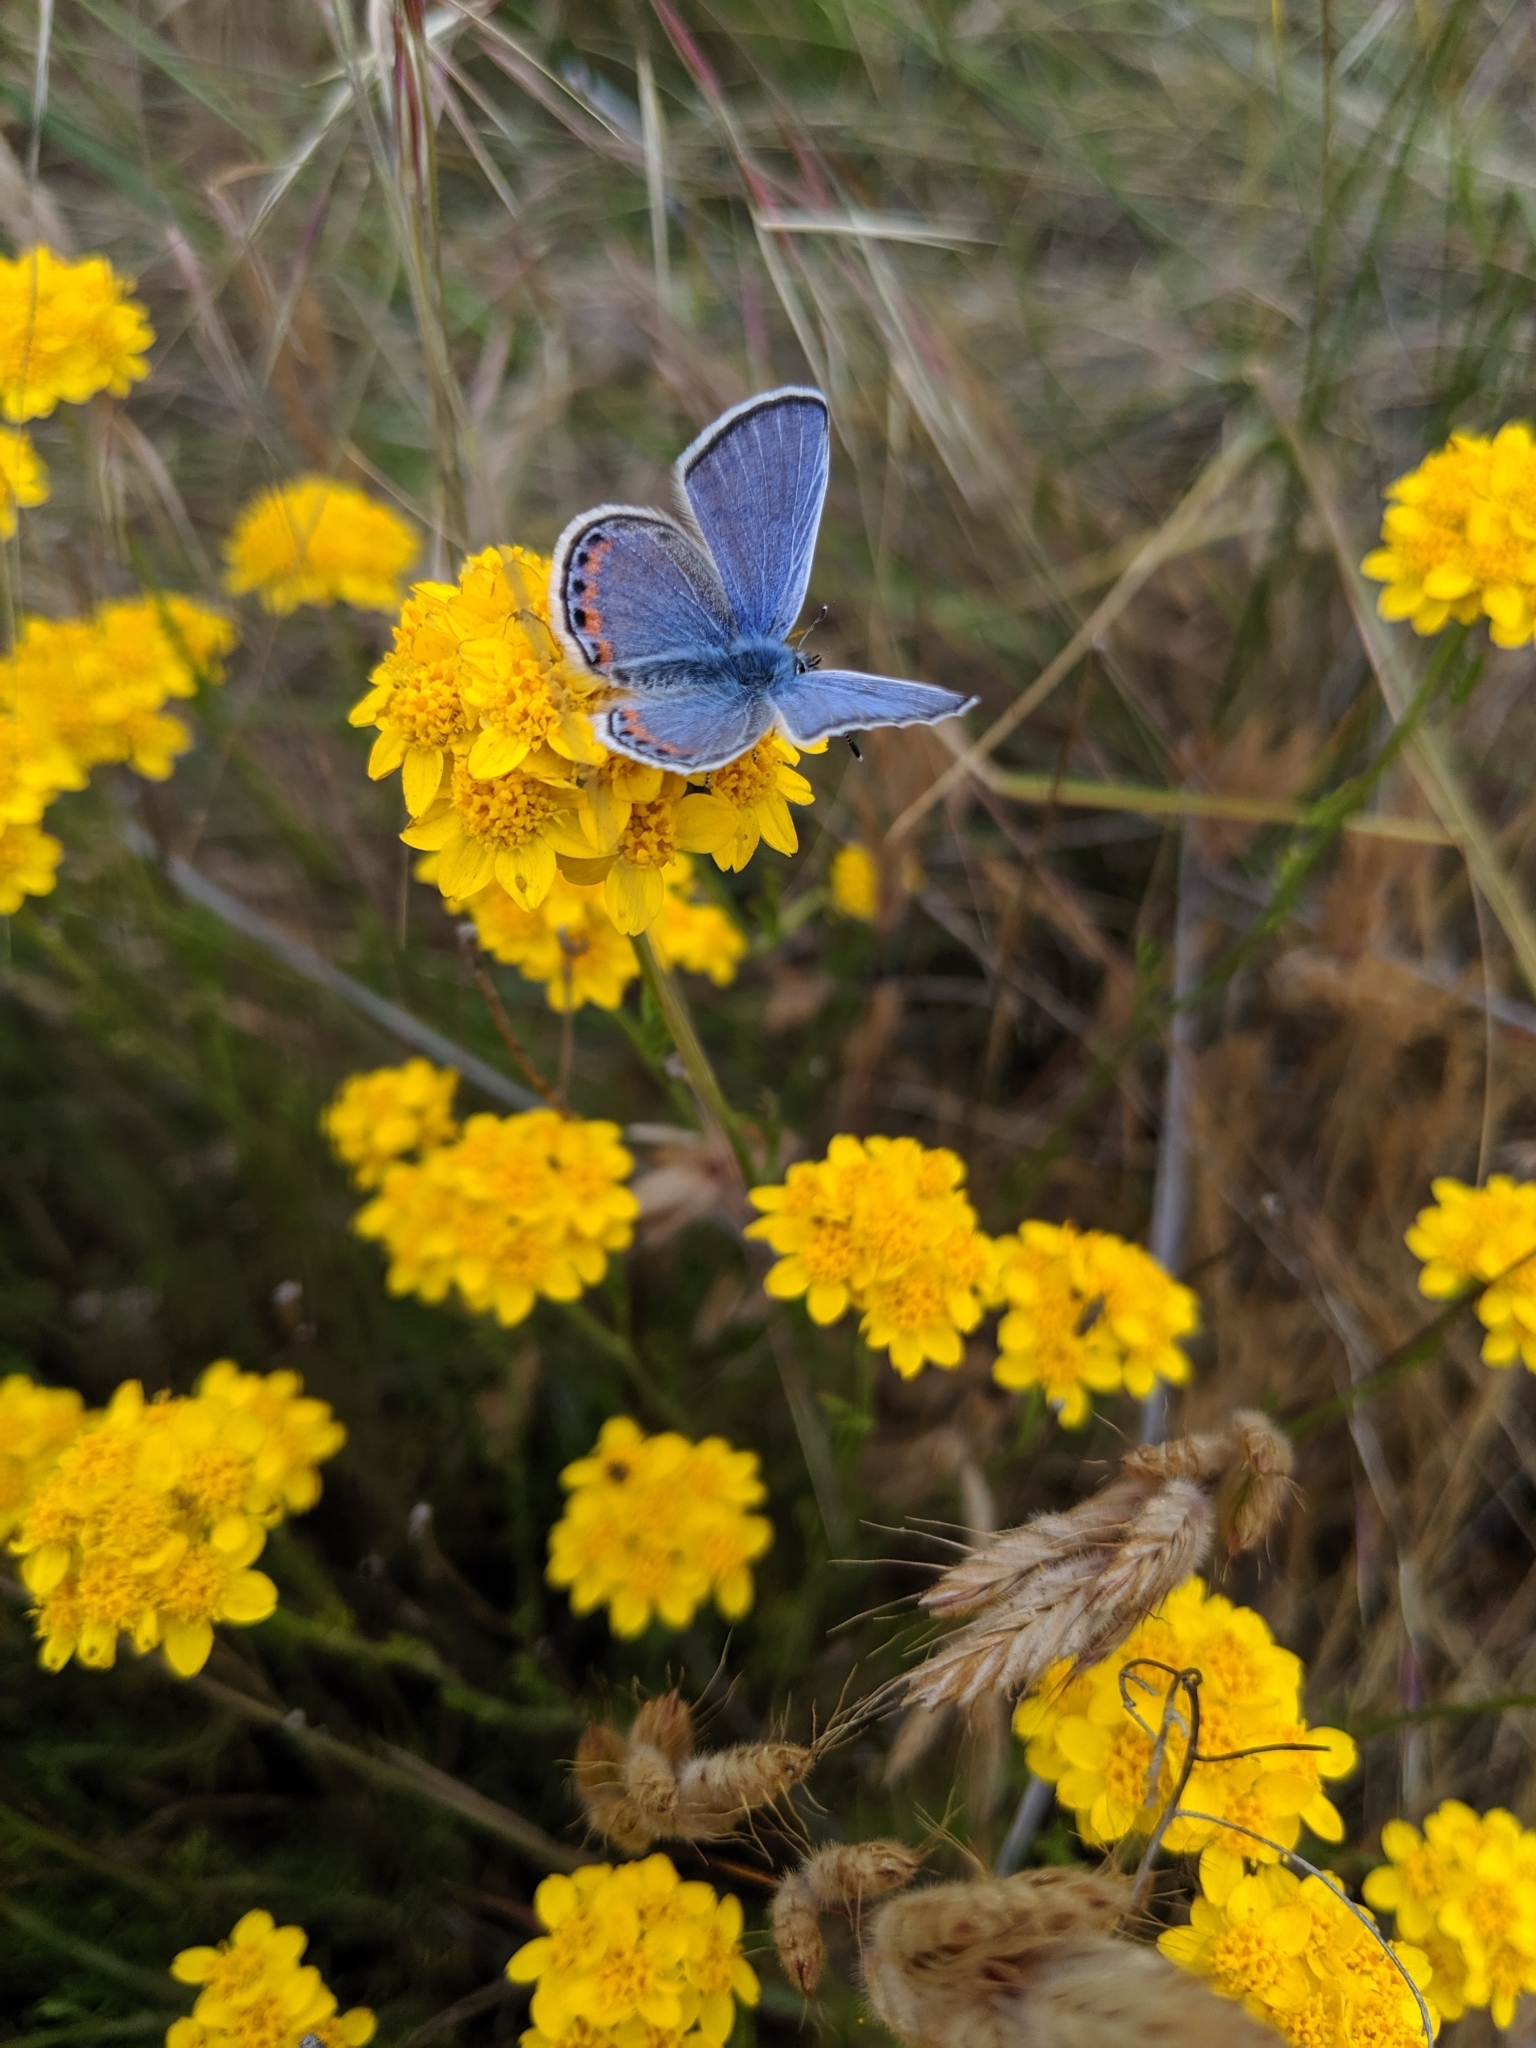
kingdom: Animalia
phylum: Arthropoda
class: Insecta
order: Lepidoptera
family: Lycaenidae
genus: Icaricia
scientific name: Icaricia acmon
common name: Acmon blue
